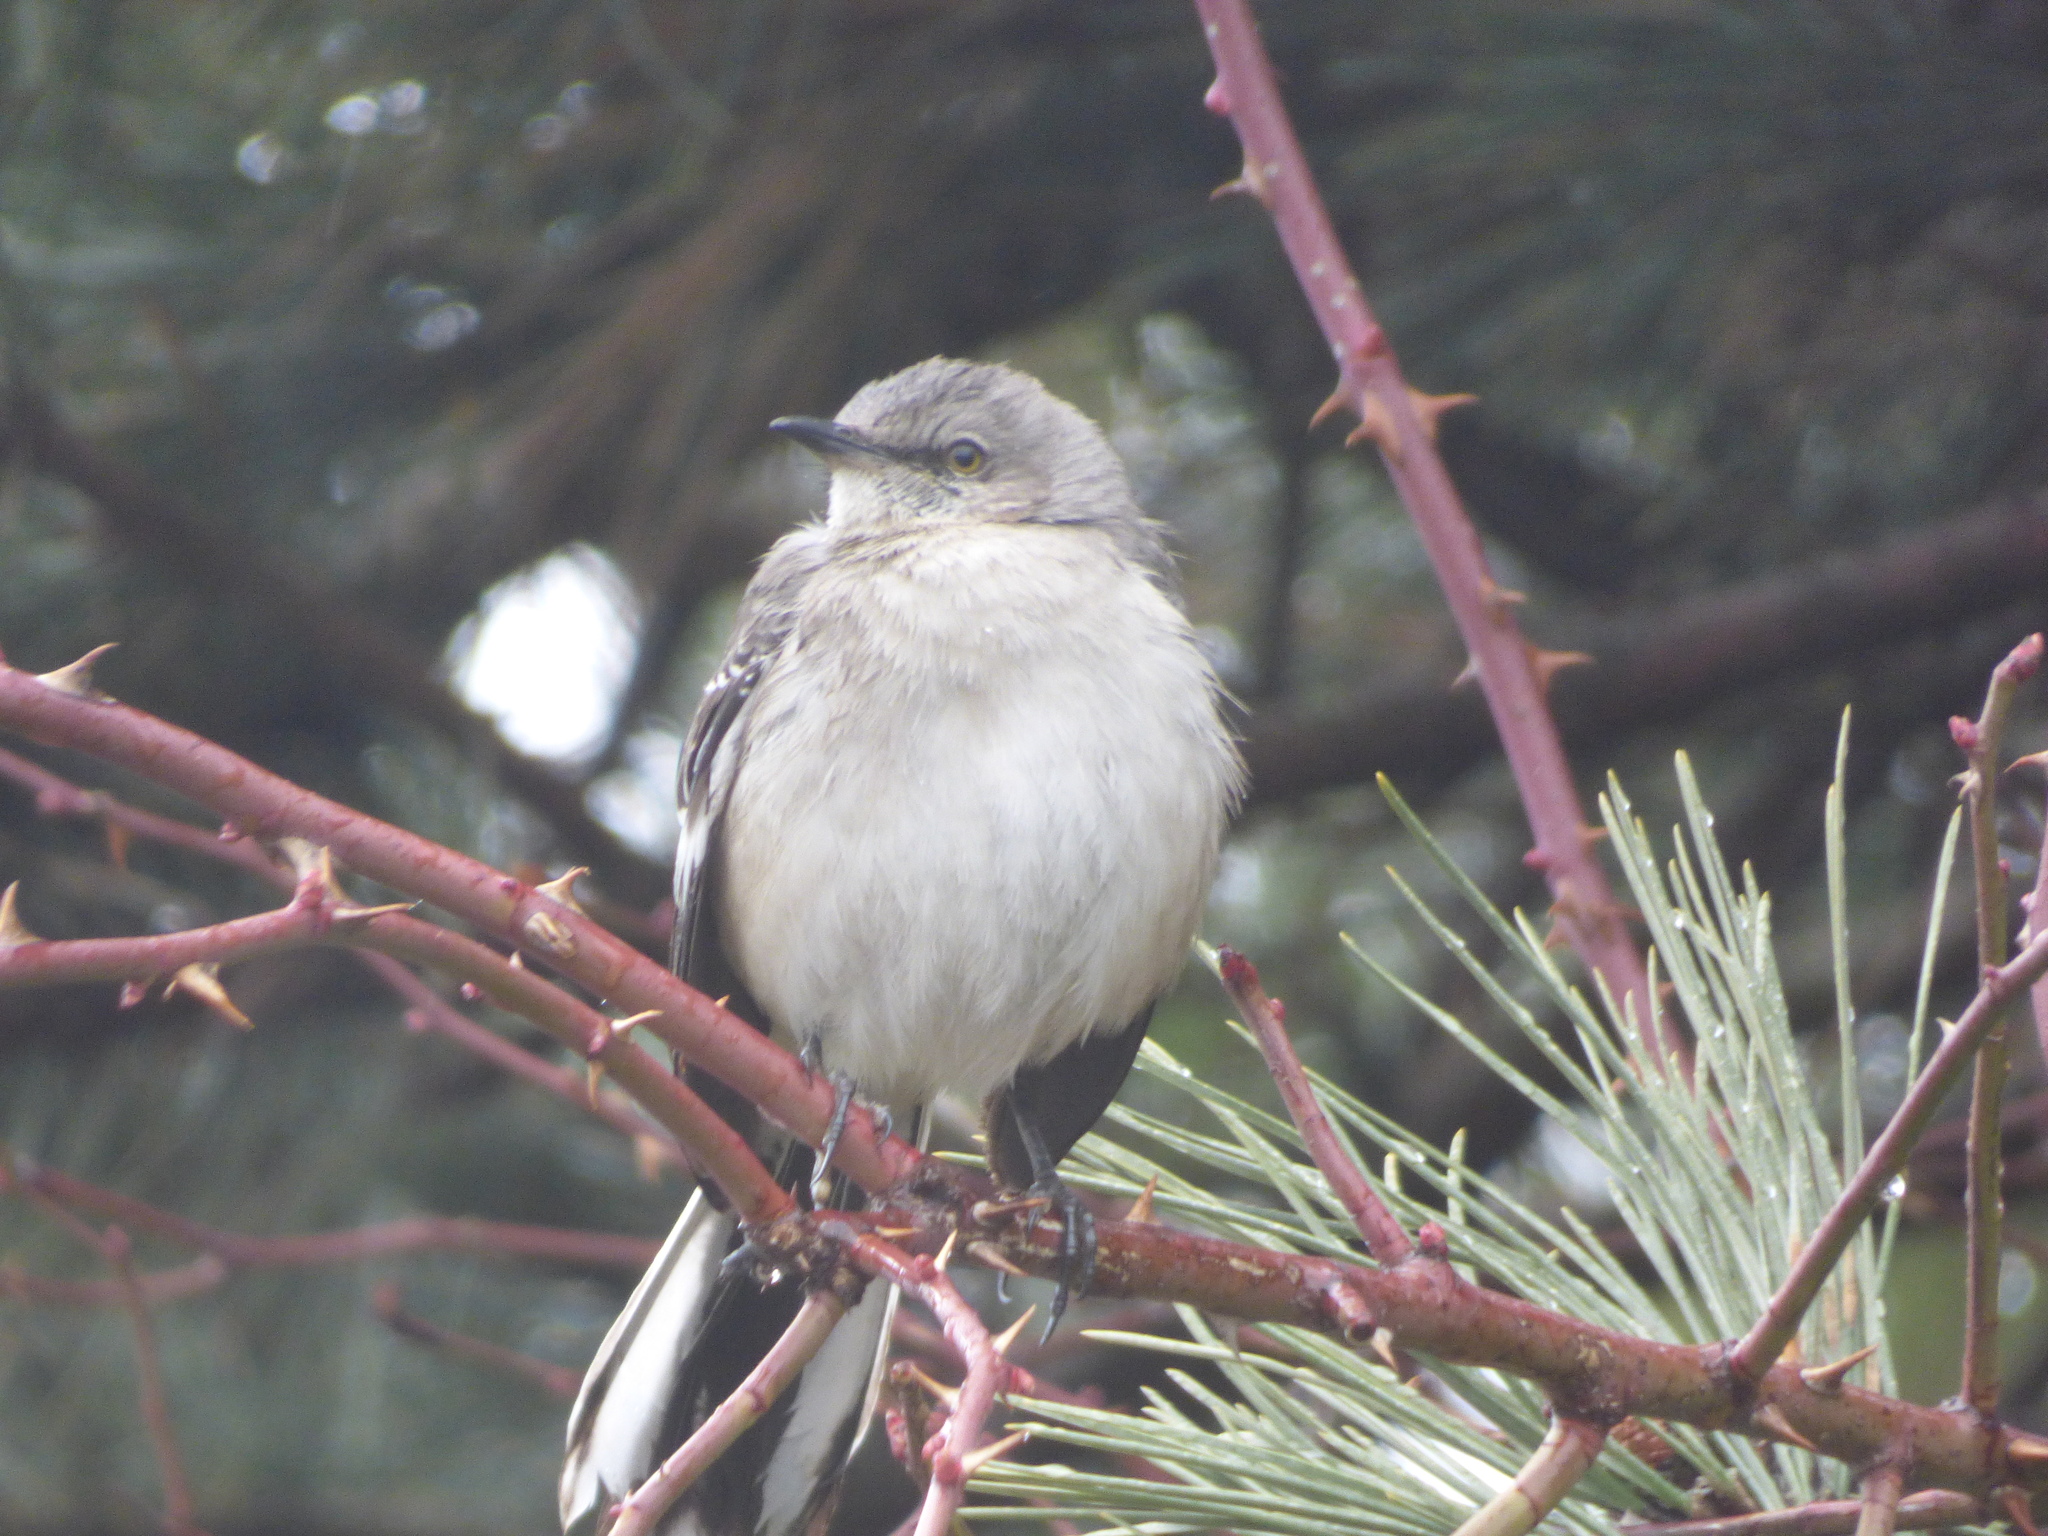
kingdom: Animalia
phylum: Chordata
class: Aves
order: Passeriformes
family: Mimidae
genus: Mimus
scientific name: Mimus polyglottos
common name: Northern mockingbird
